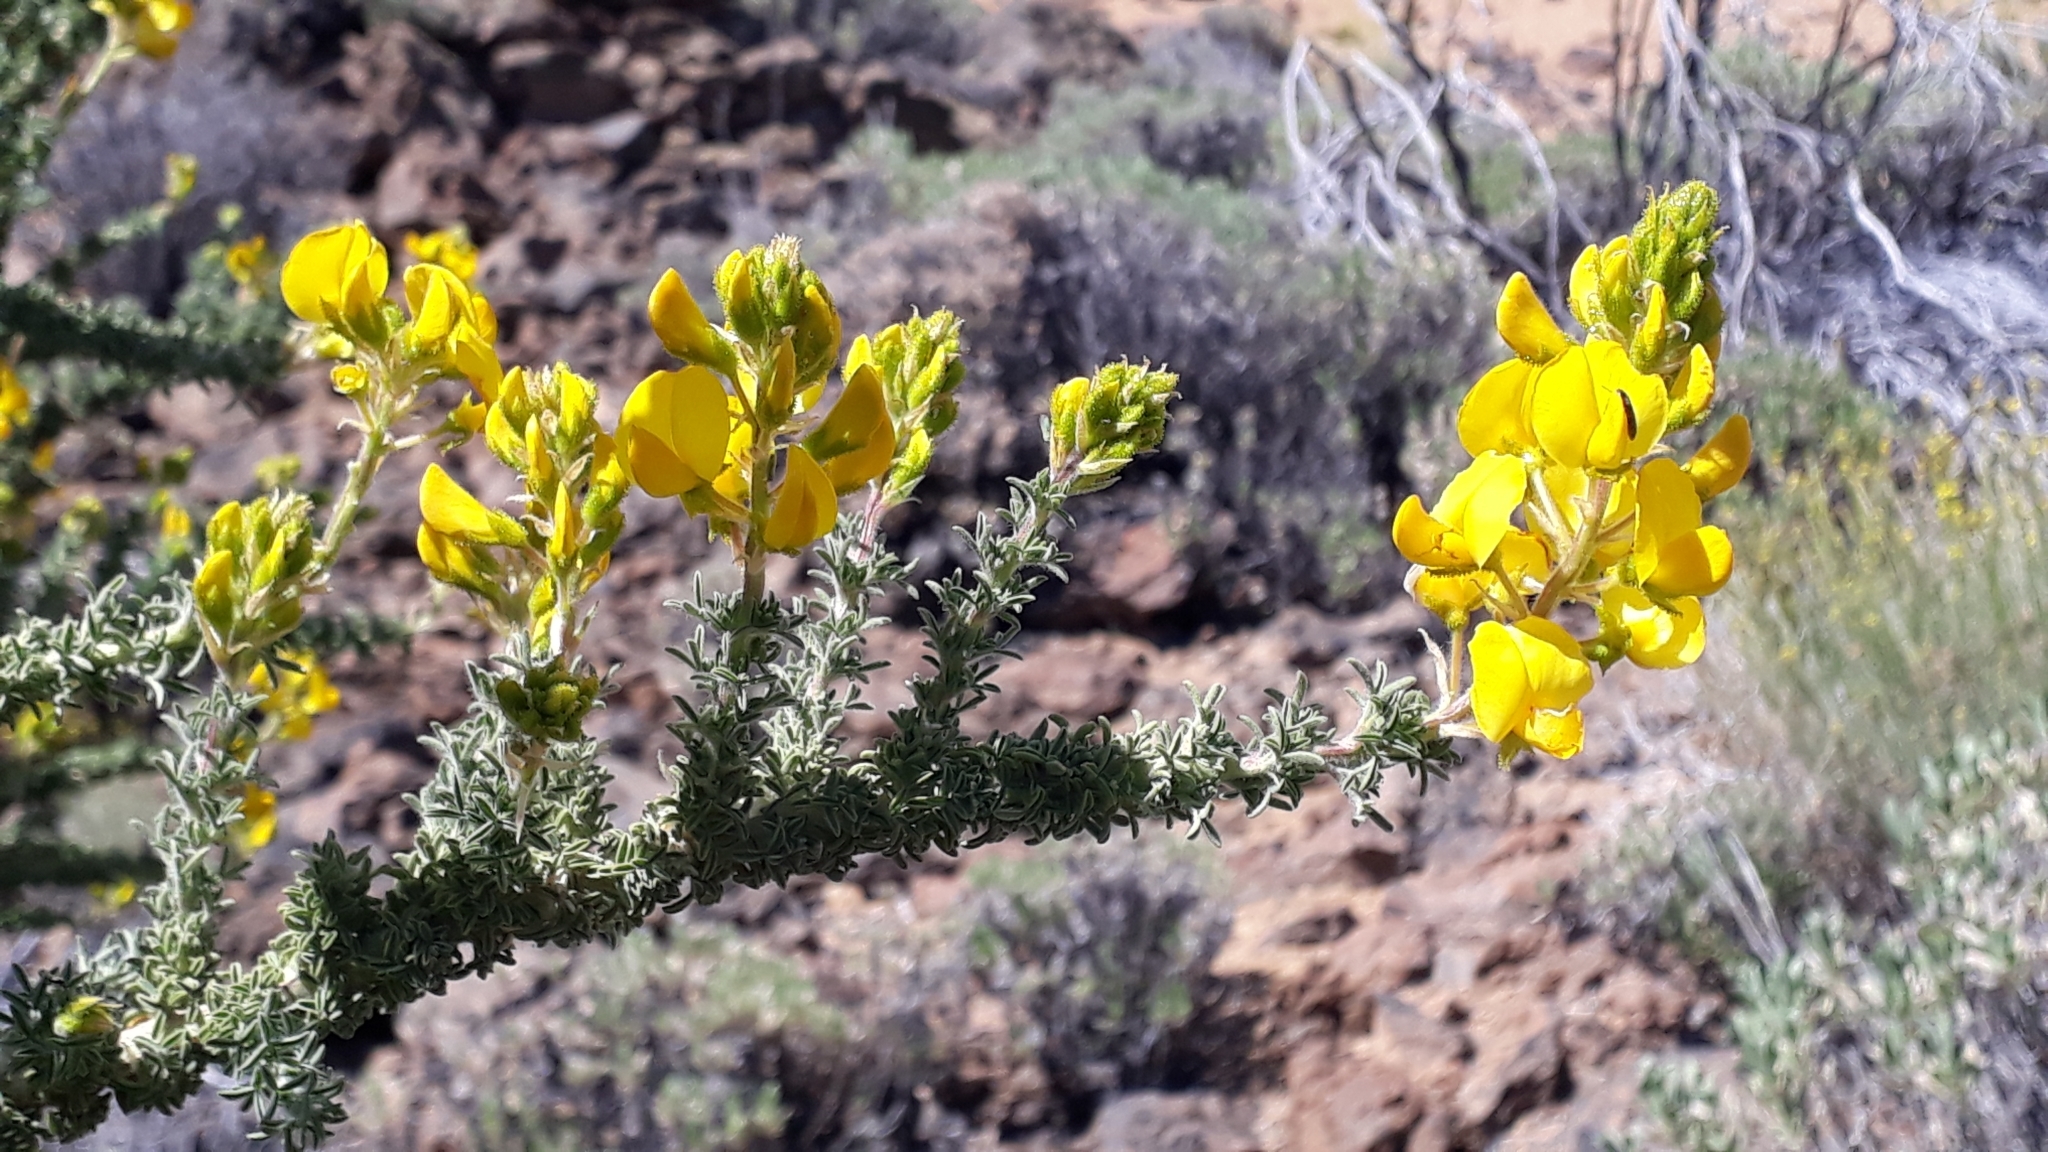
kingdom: Plantae
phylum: Tracheophyta
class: Magnoliopsida
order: Fabales
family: Fabaceae
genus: Adenocarpus
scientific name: Adenocarpus viscosus
